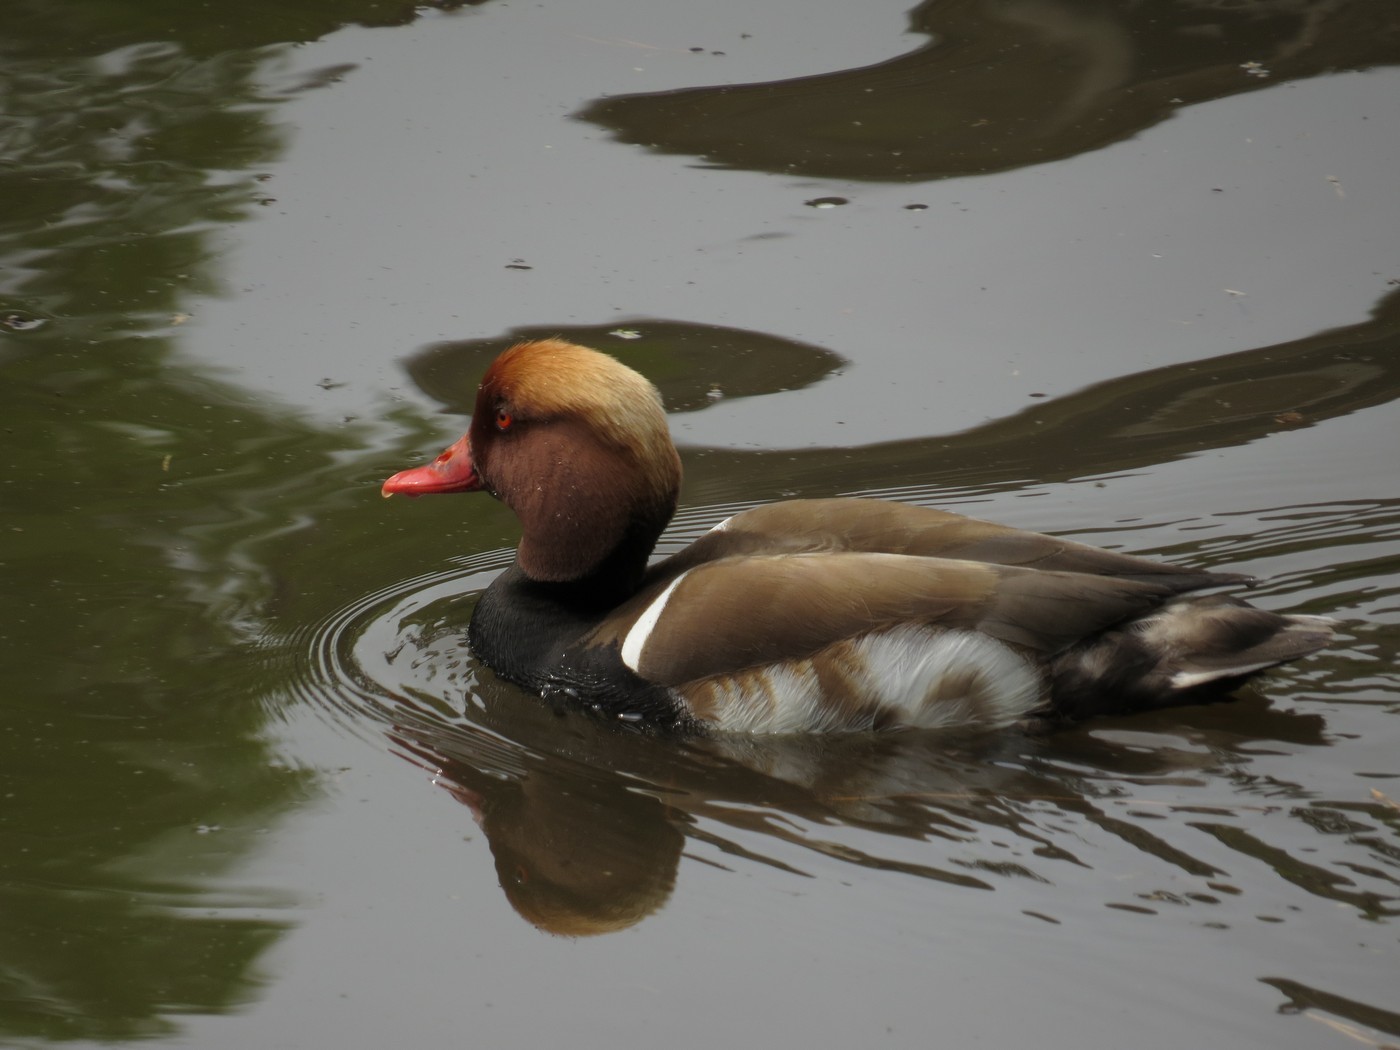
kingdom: Animalia
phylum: Chordata
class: Aves
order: Anseriformes
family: Anatidae
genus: Aythya
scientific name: Aythya americana
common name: Redhead
